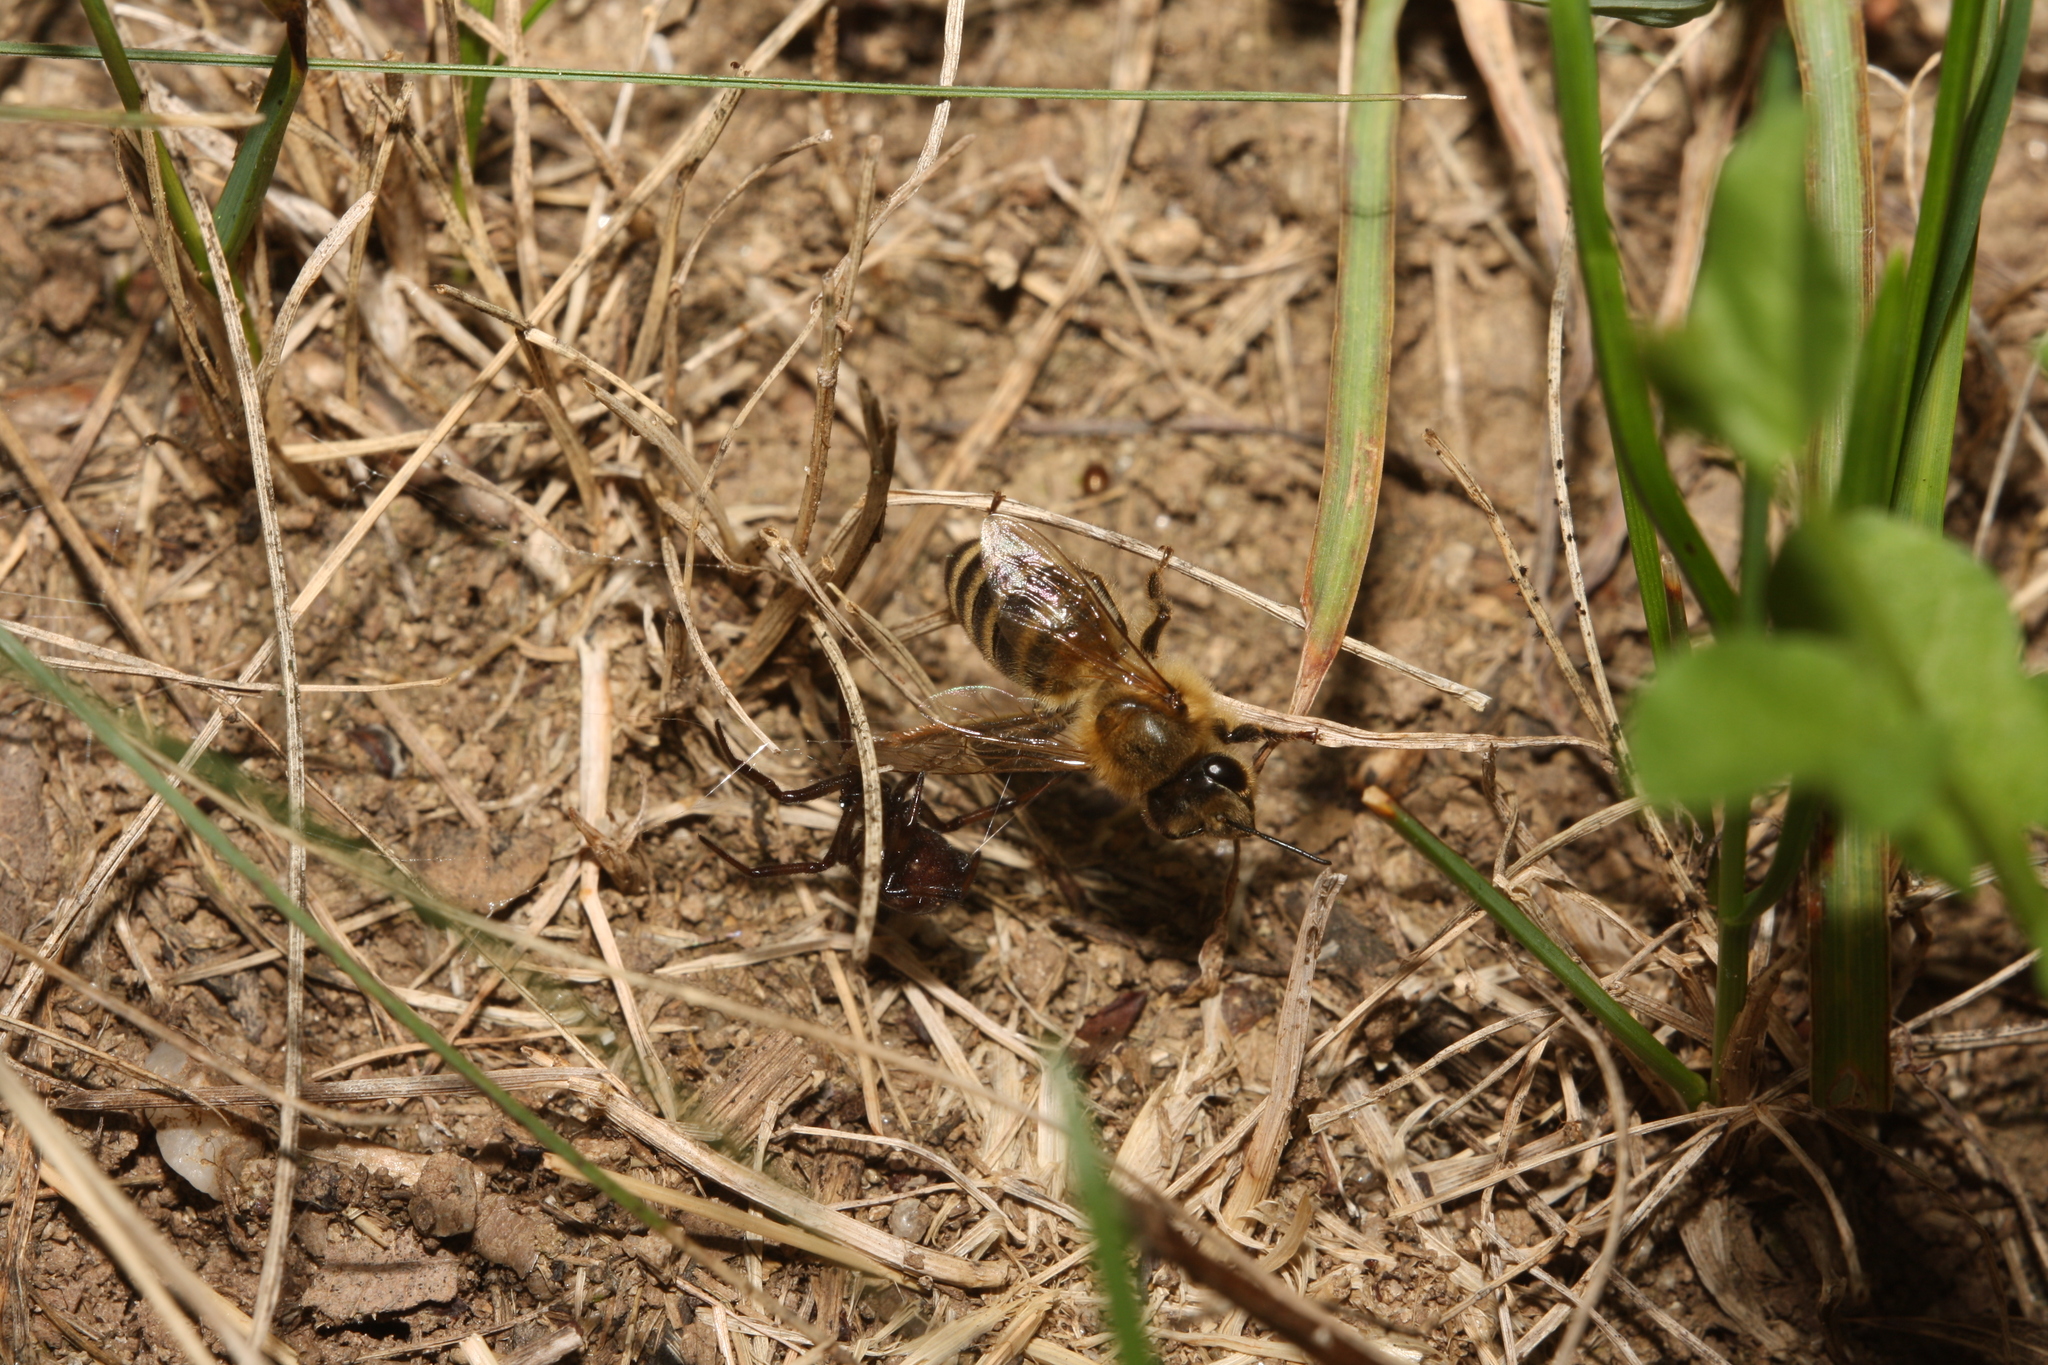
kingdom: Animalia
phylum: Arthropoda
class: Insecta
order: Hymenoptera
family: Apidae
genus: Apis
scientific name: Apis mellifera
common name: Honey bee
